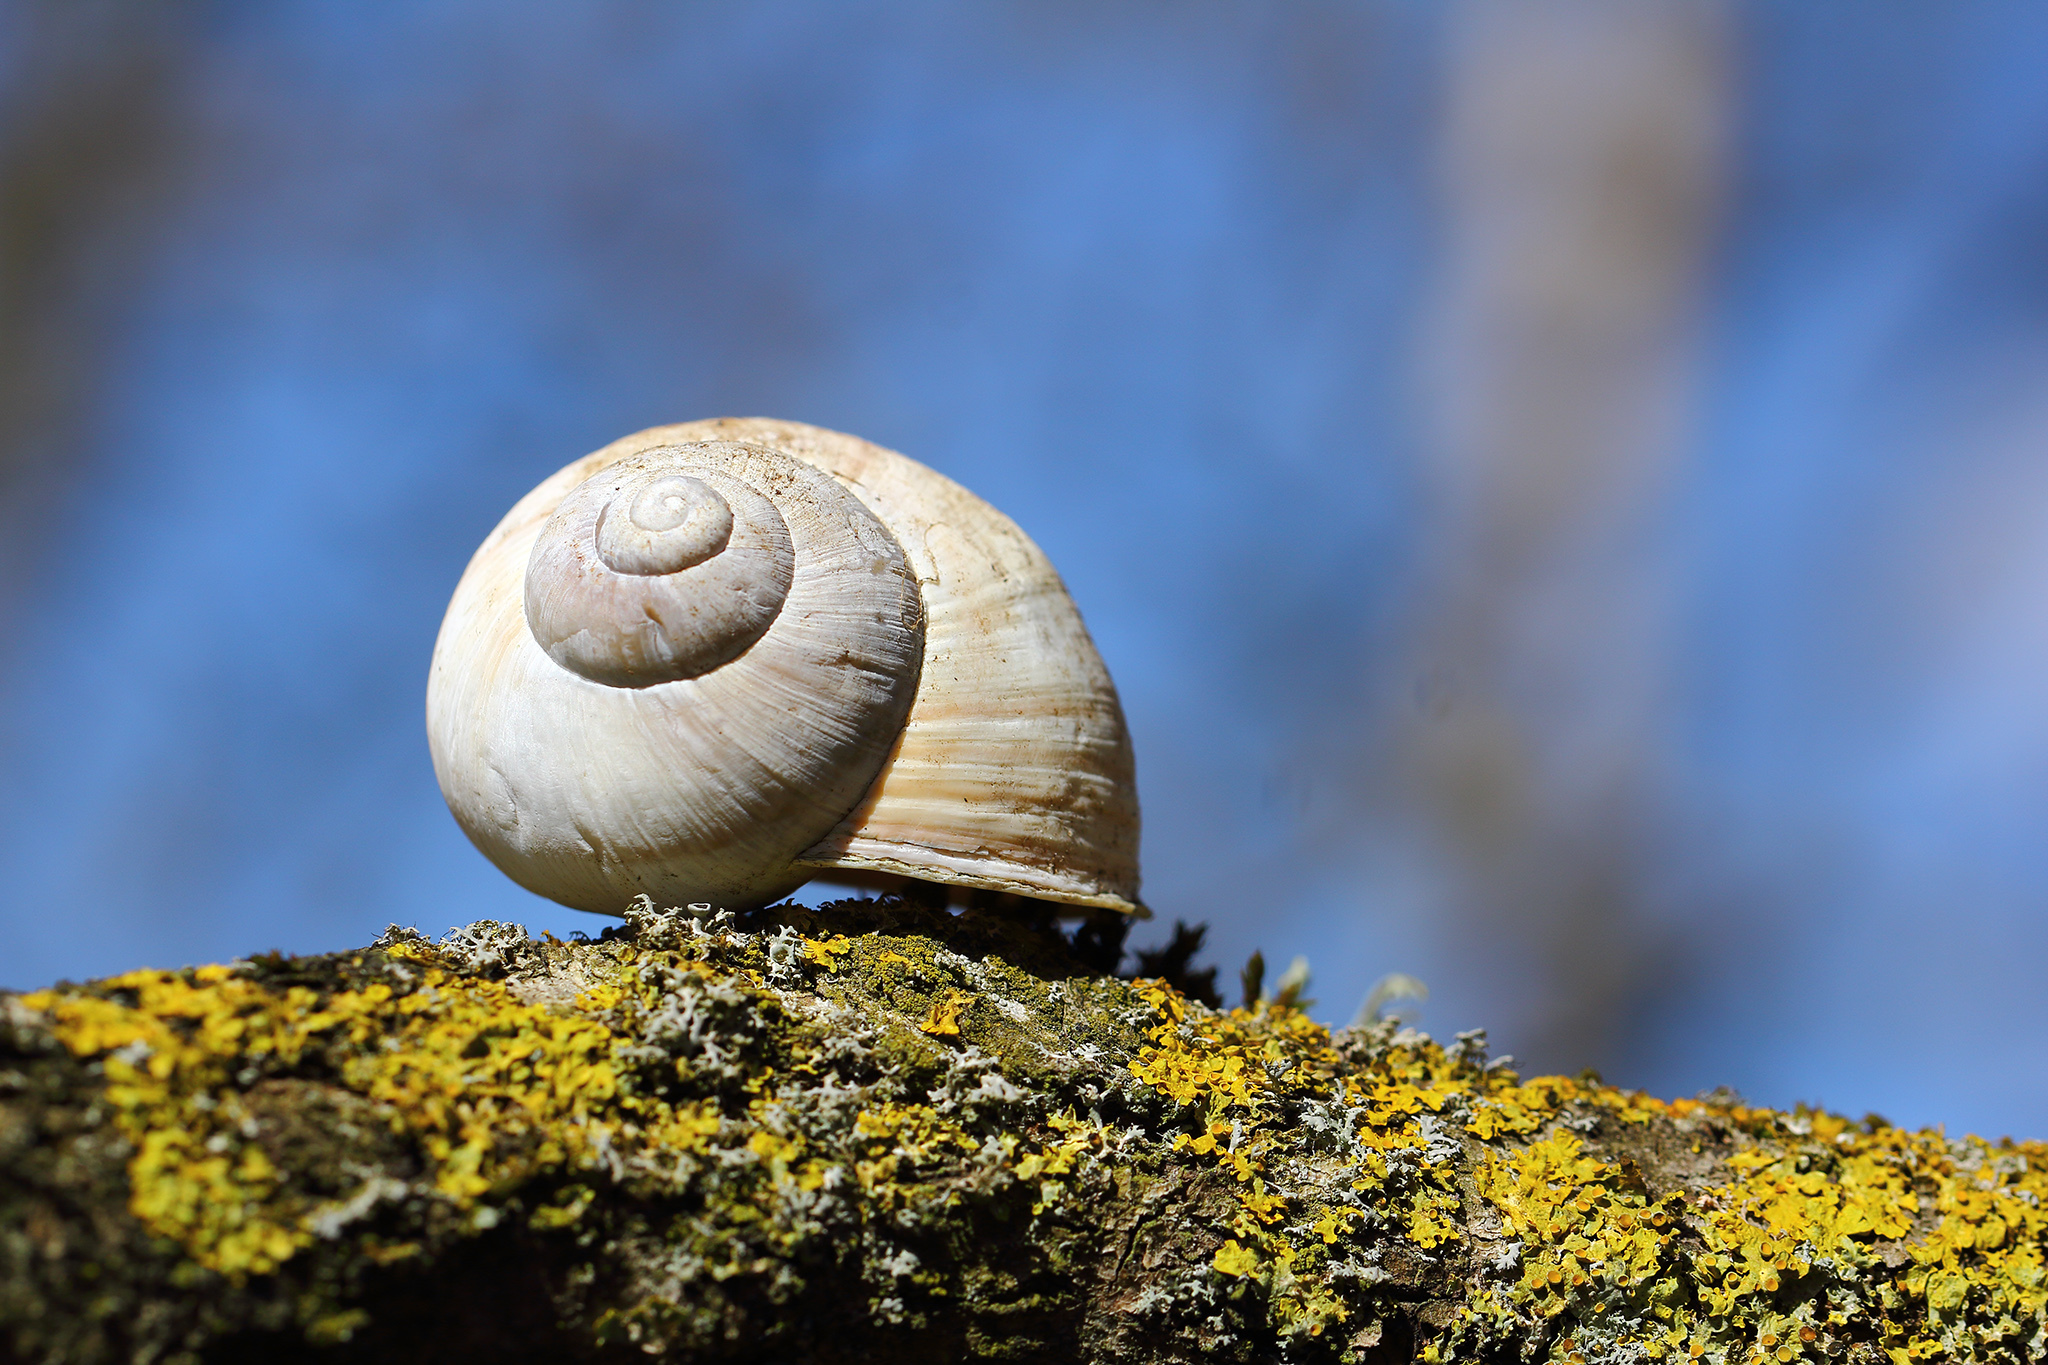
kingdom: Animalia
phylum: Mollusca
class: Gastropoda
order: Stylommatophora
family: Helicidae
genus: Helix
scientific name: Helix pomatia
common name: Roman snail
